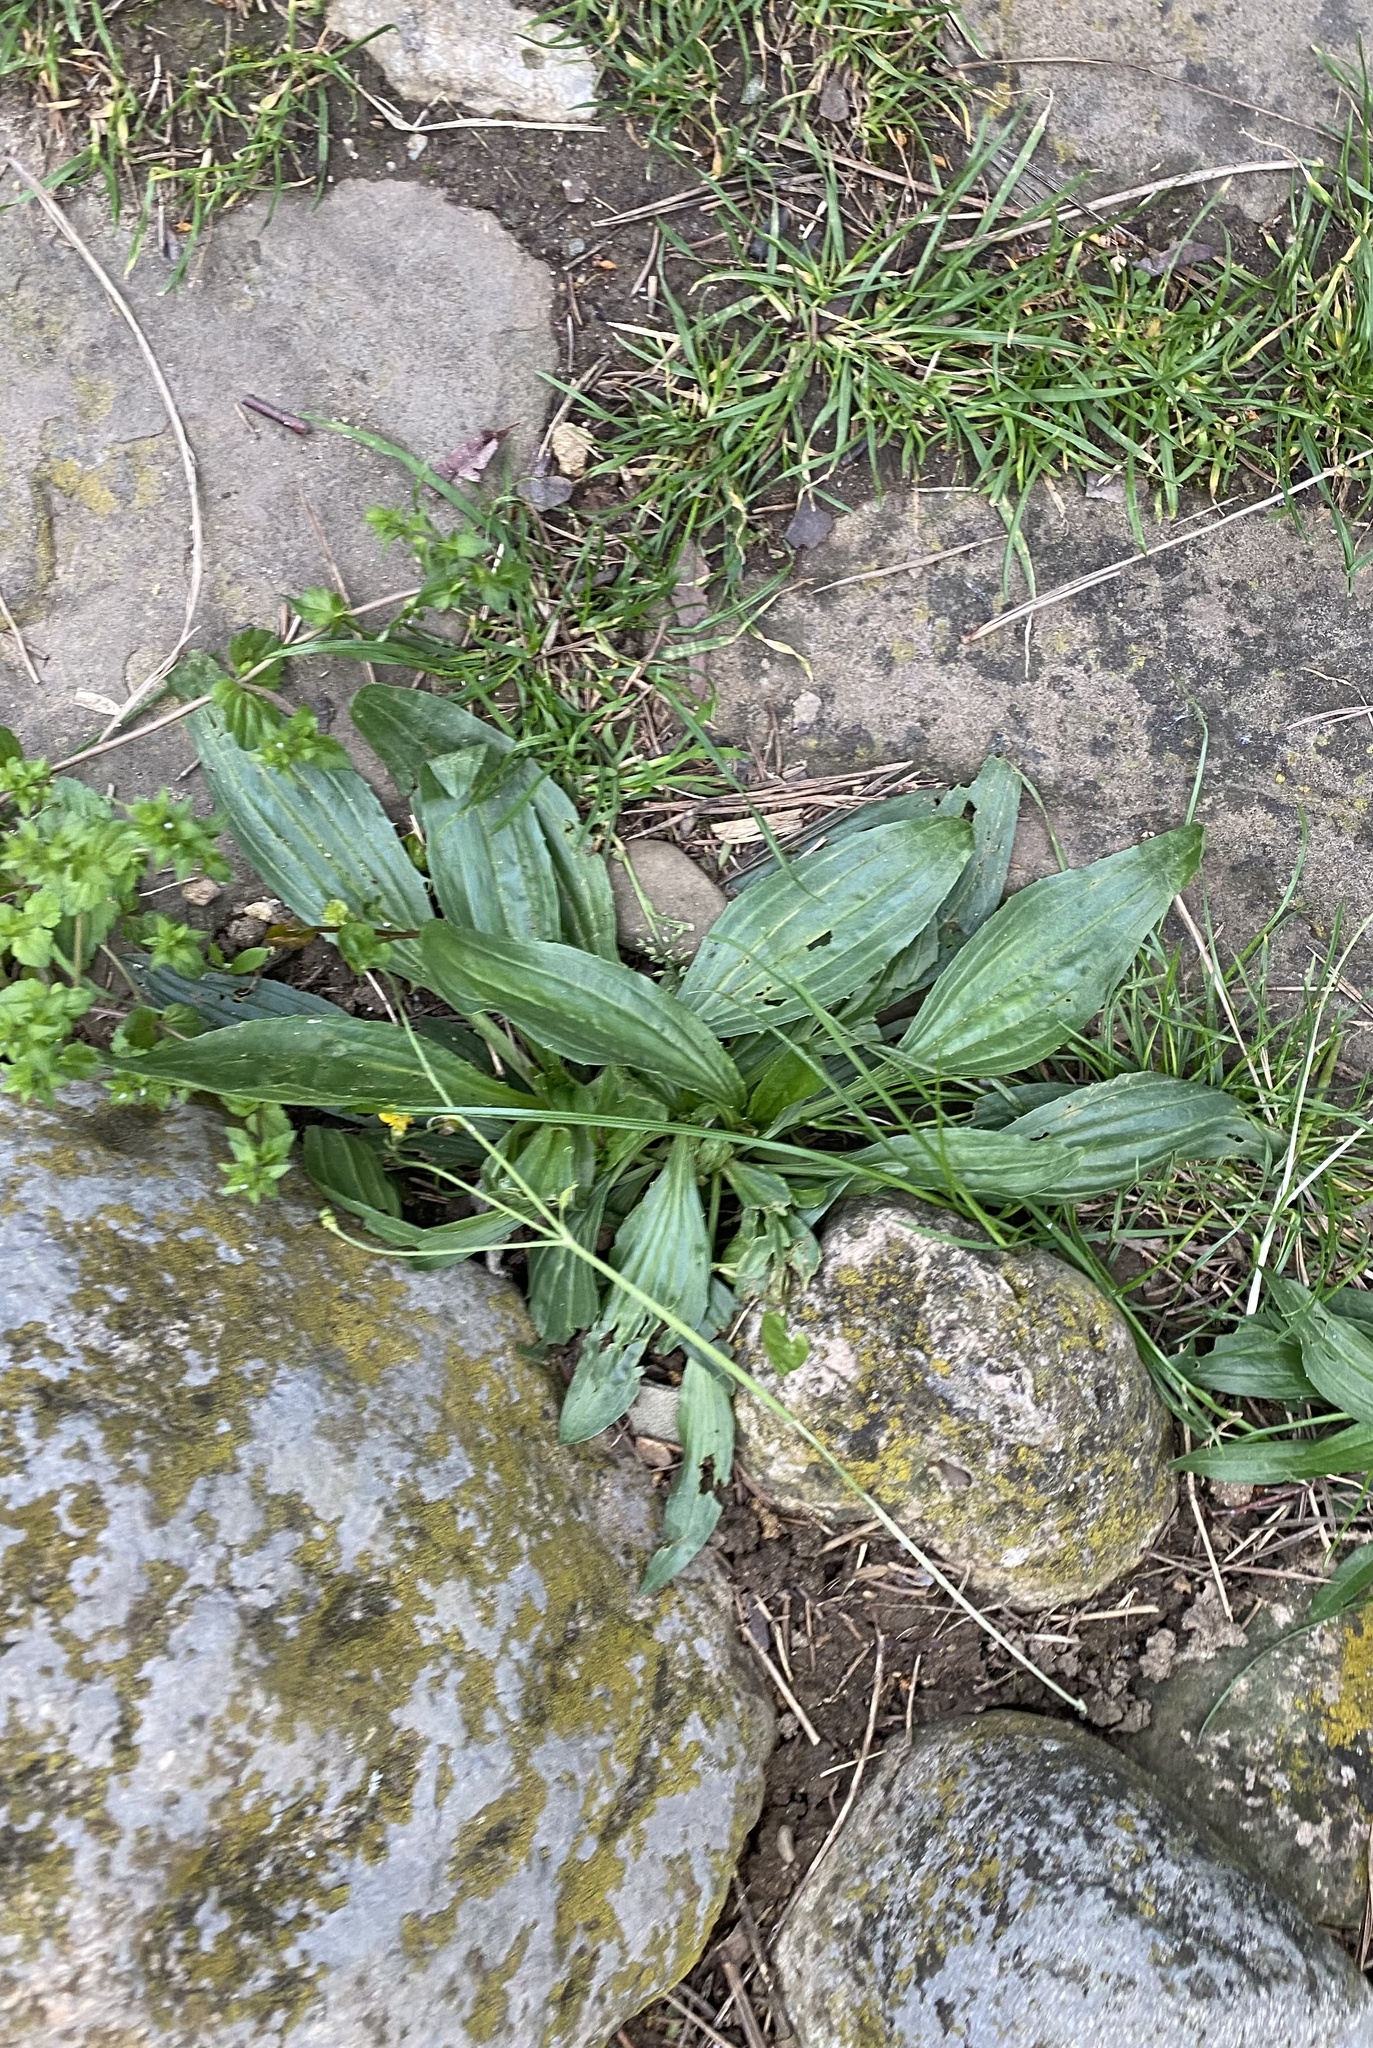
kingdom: Plantae
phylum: Tracheophyta
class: Magnoliopsida
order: Lamiales
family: Plantaginaceae
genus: Plantago
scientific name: Plantago lanceolata
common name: Ribwort plantain
